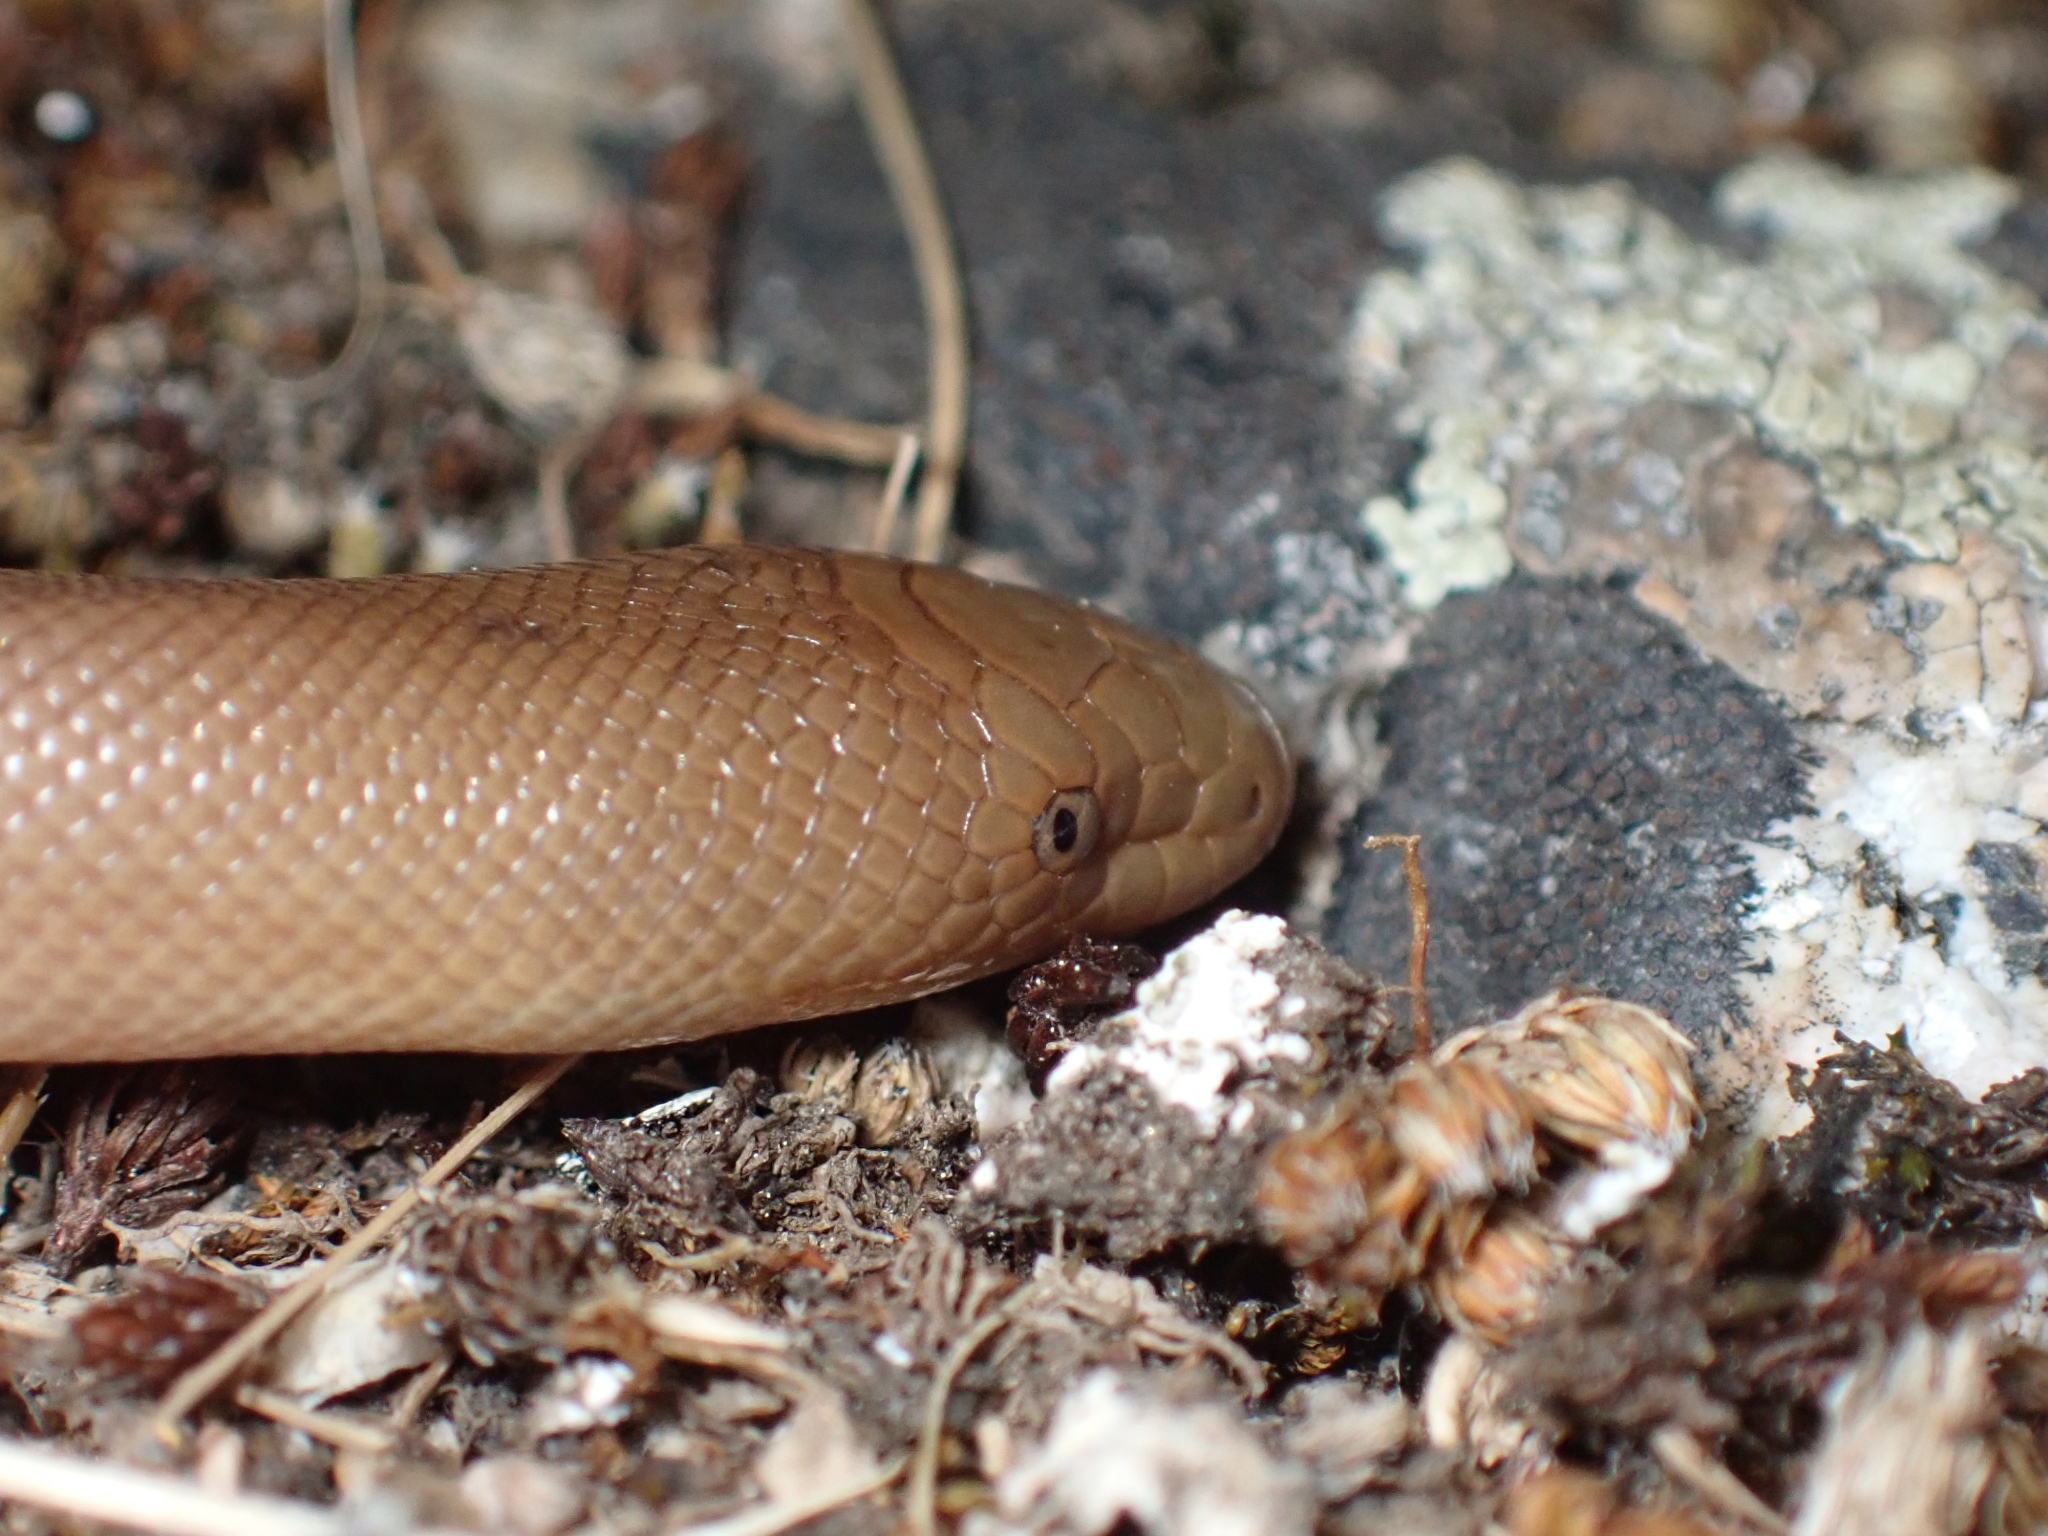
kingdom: Animalia
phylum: Chordata
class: Squamata
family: Boidae
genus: Charina
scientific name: Charina bottae
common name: Northern rubber boa
